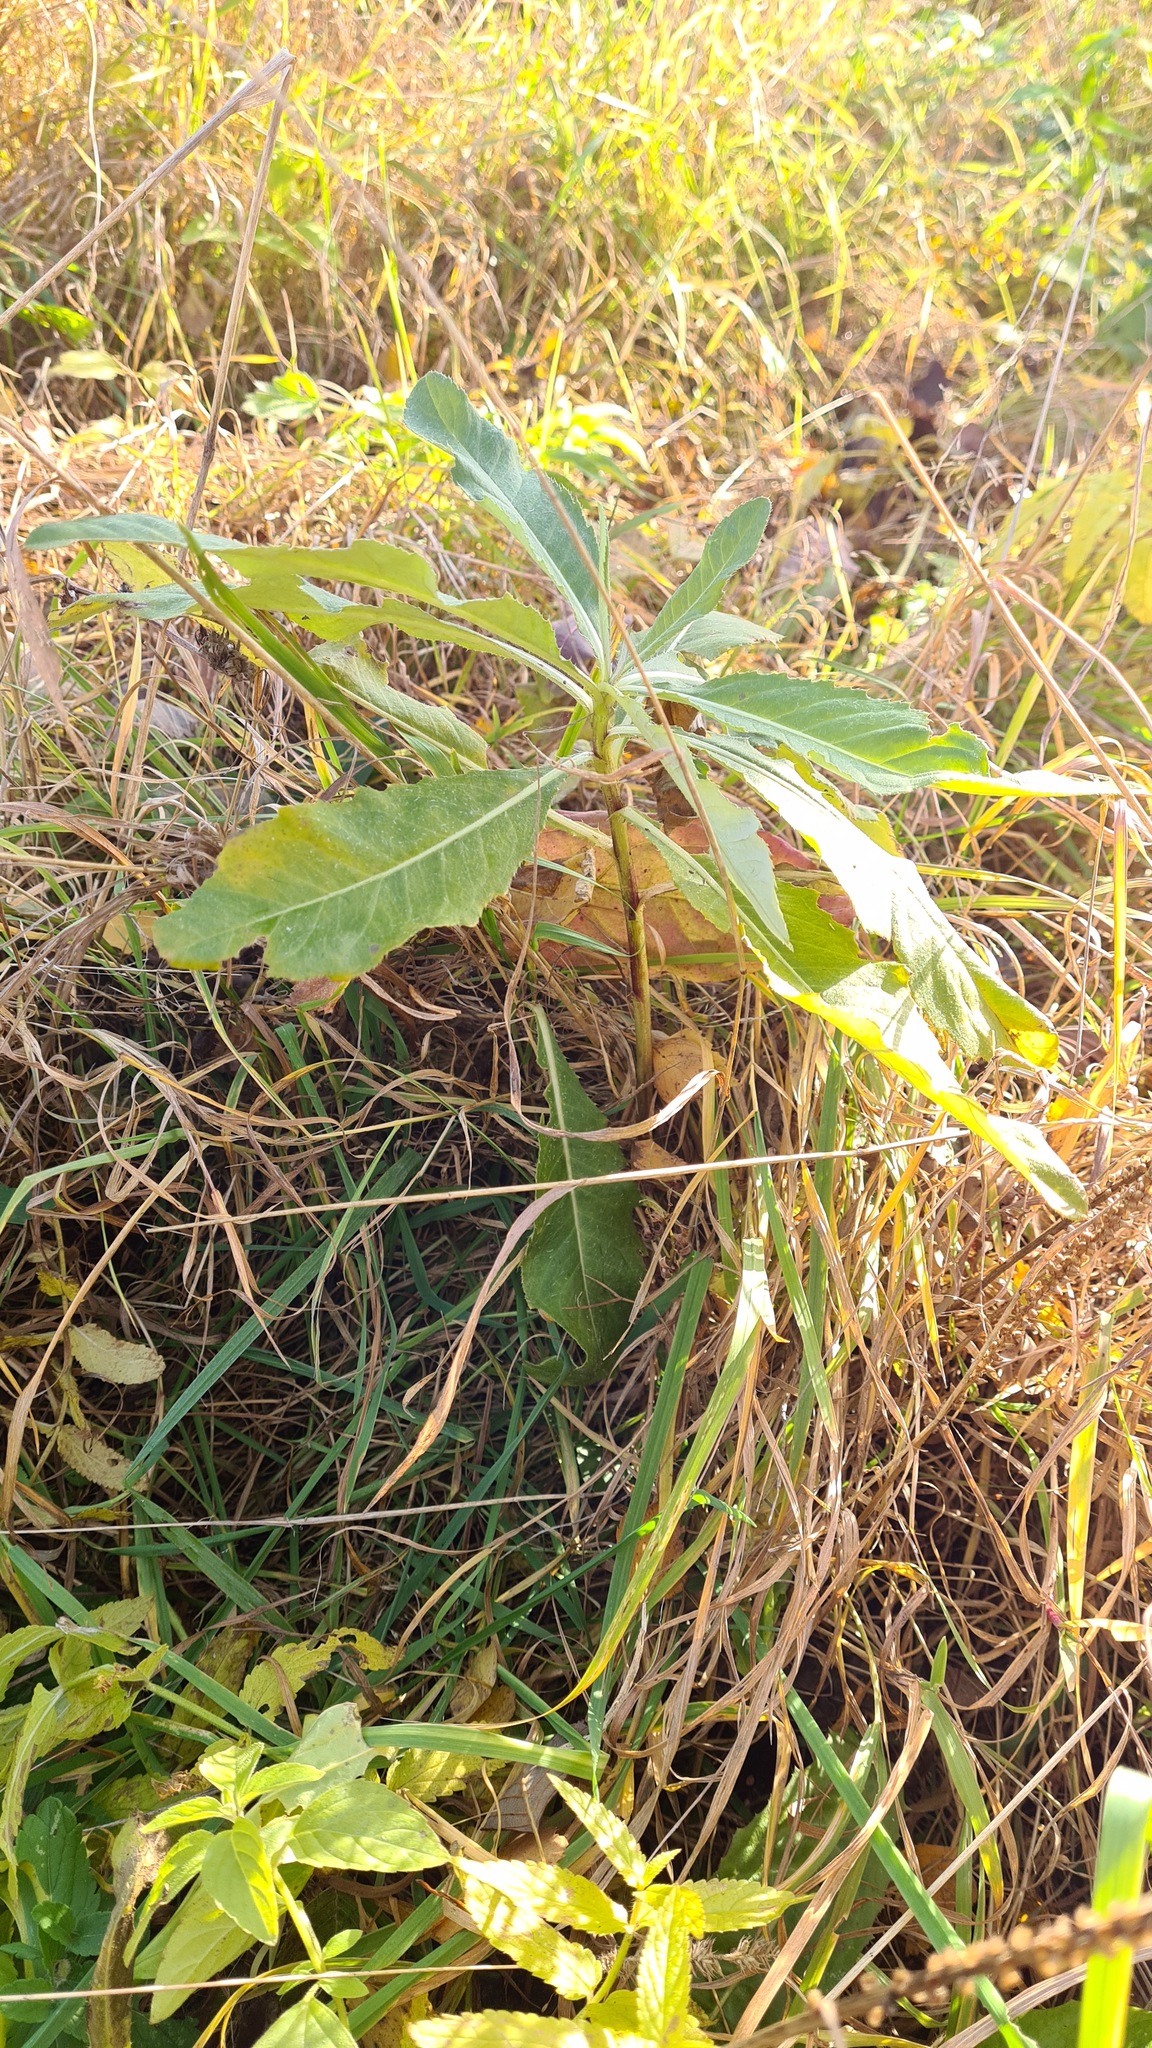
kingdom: Plantae
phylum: Tracheophyta
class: Magnoliopsida
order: Asterales
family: Asteraceae
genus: Cirsium
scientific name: Cirsium arvense
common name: Creeping thistle
